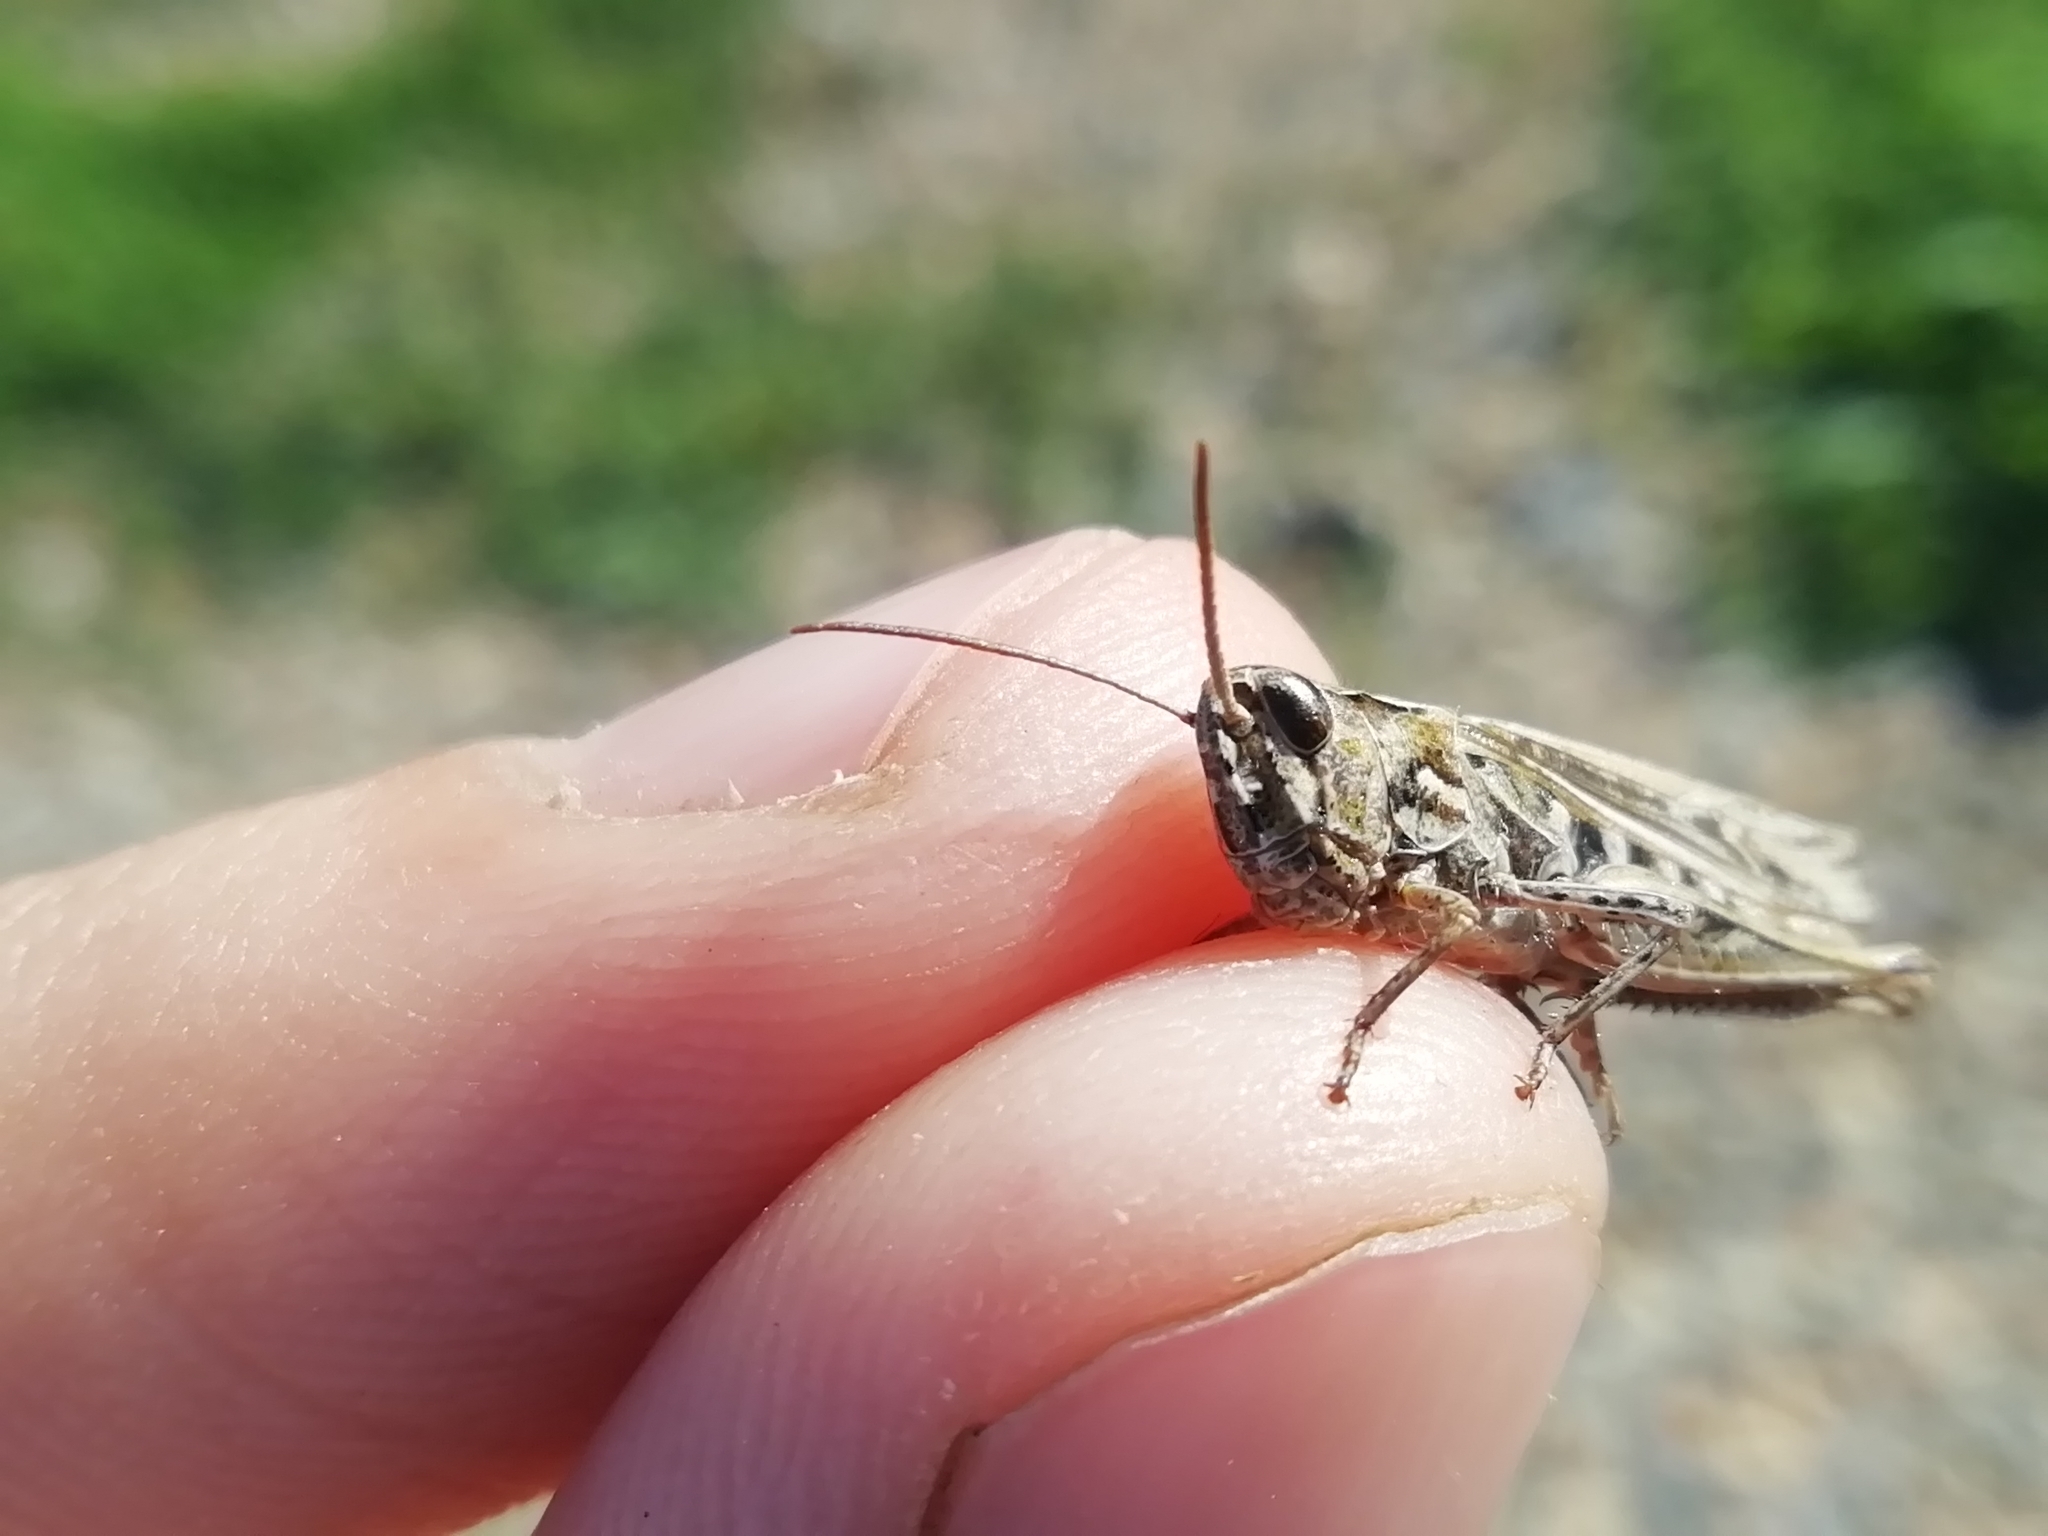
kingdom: Animalia
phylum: Arthropoda
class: Insecta
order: Orthoptera
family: Acrididae
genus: Chorthippus
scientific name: Chorthippus biguttulus
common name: Bow-winged grasshopper
